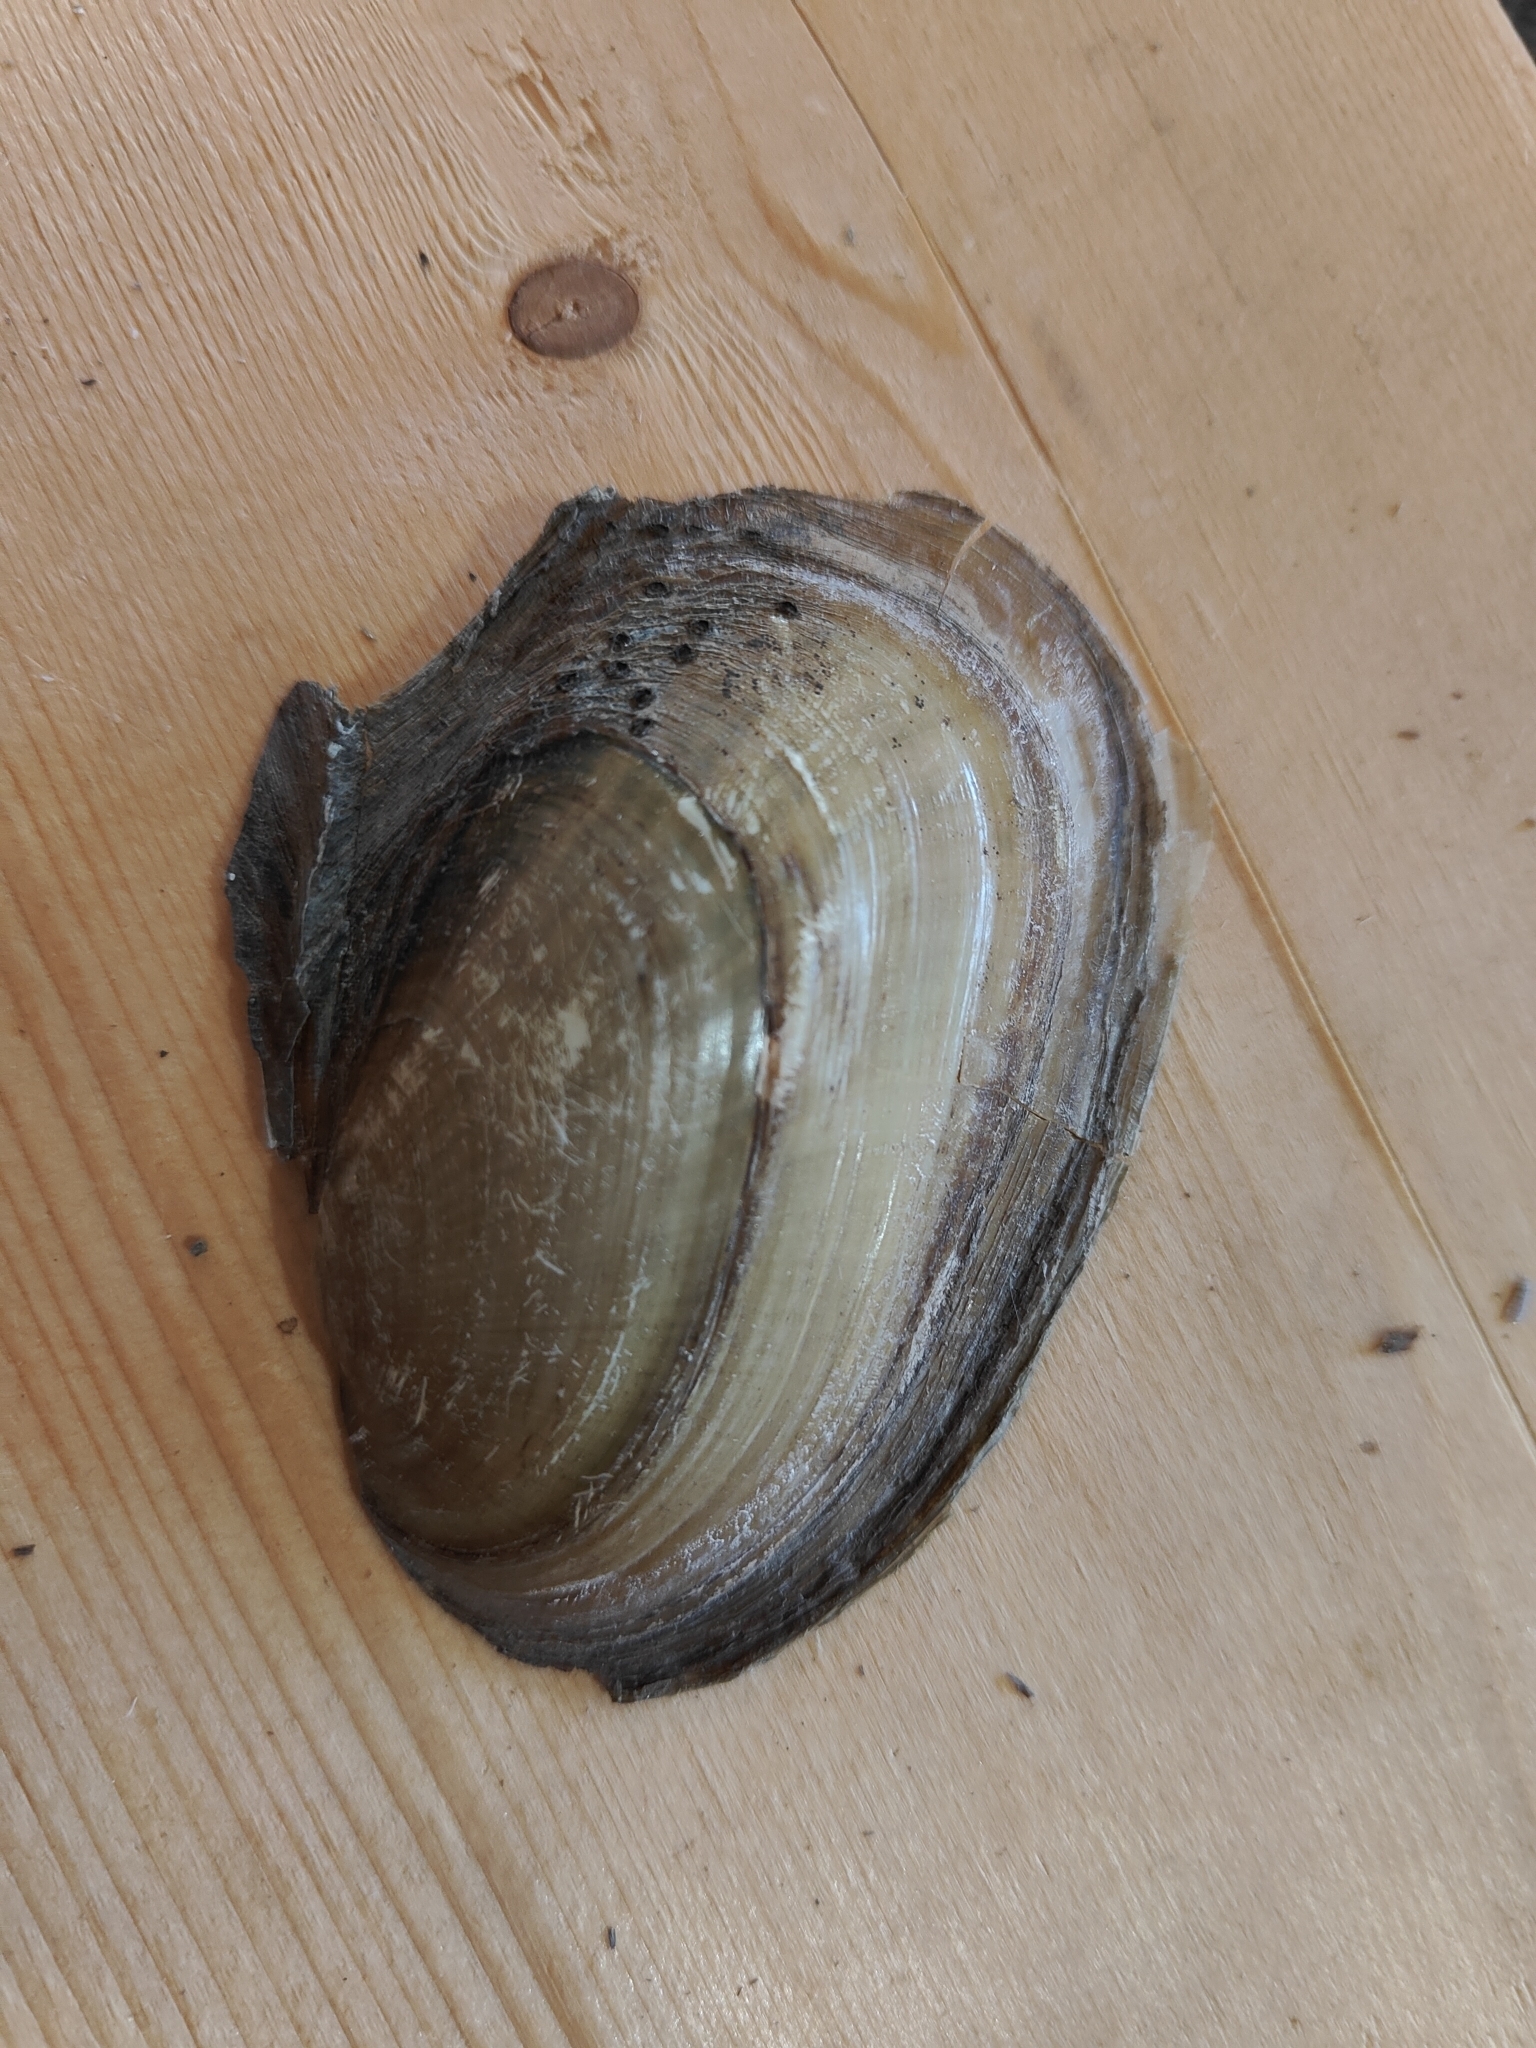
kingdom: Animalia
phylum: Mollusca
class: Bivalvia
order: Unionida
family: Unionidae
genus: Potamilus
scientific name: Potamilus fragilis
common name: Fragile papershell
